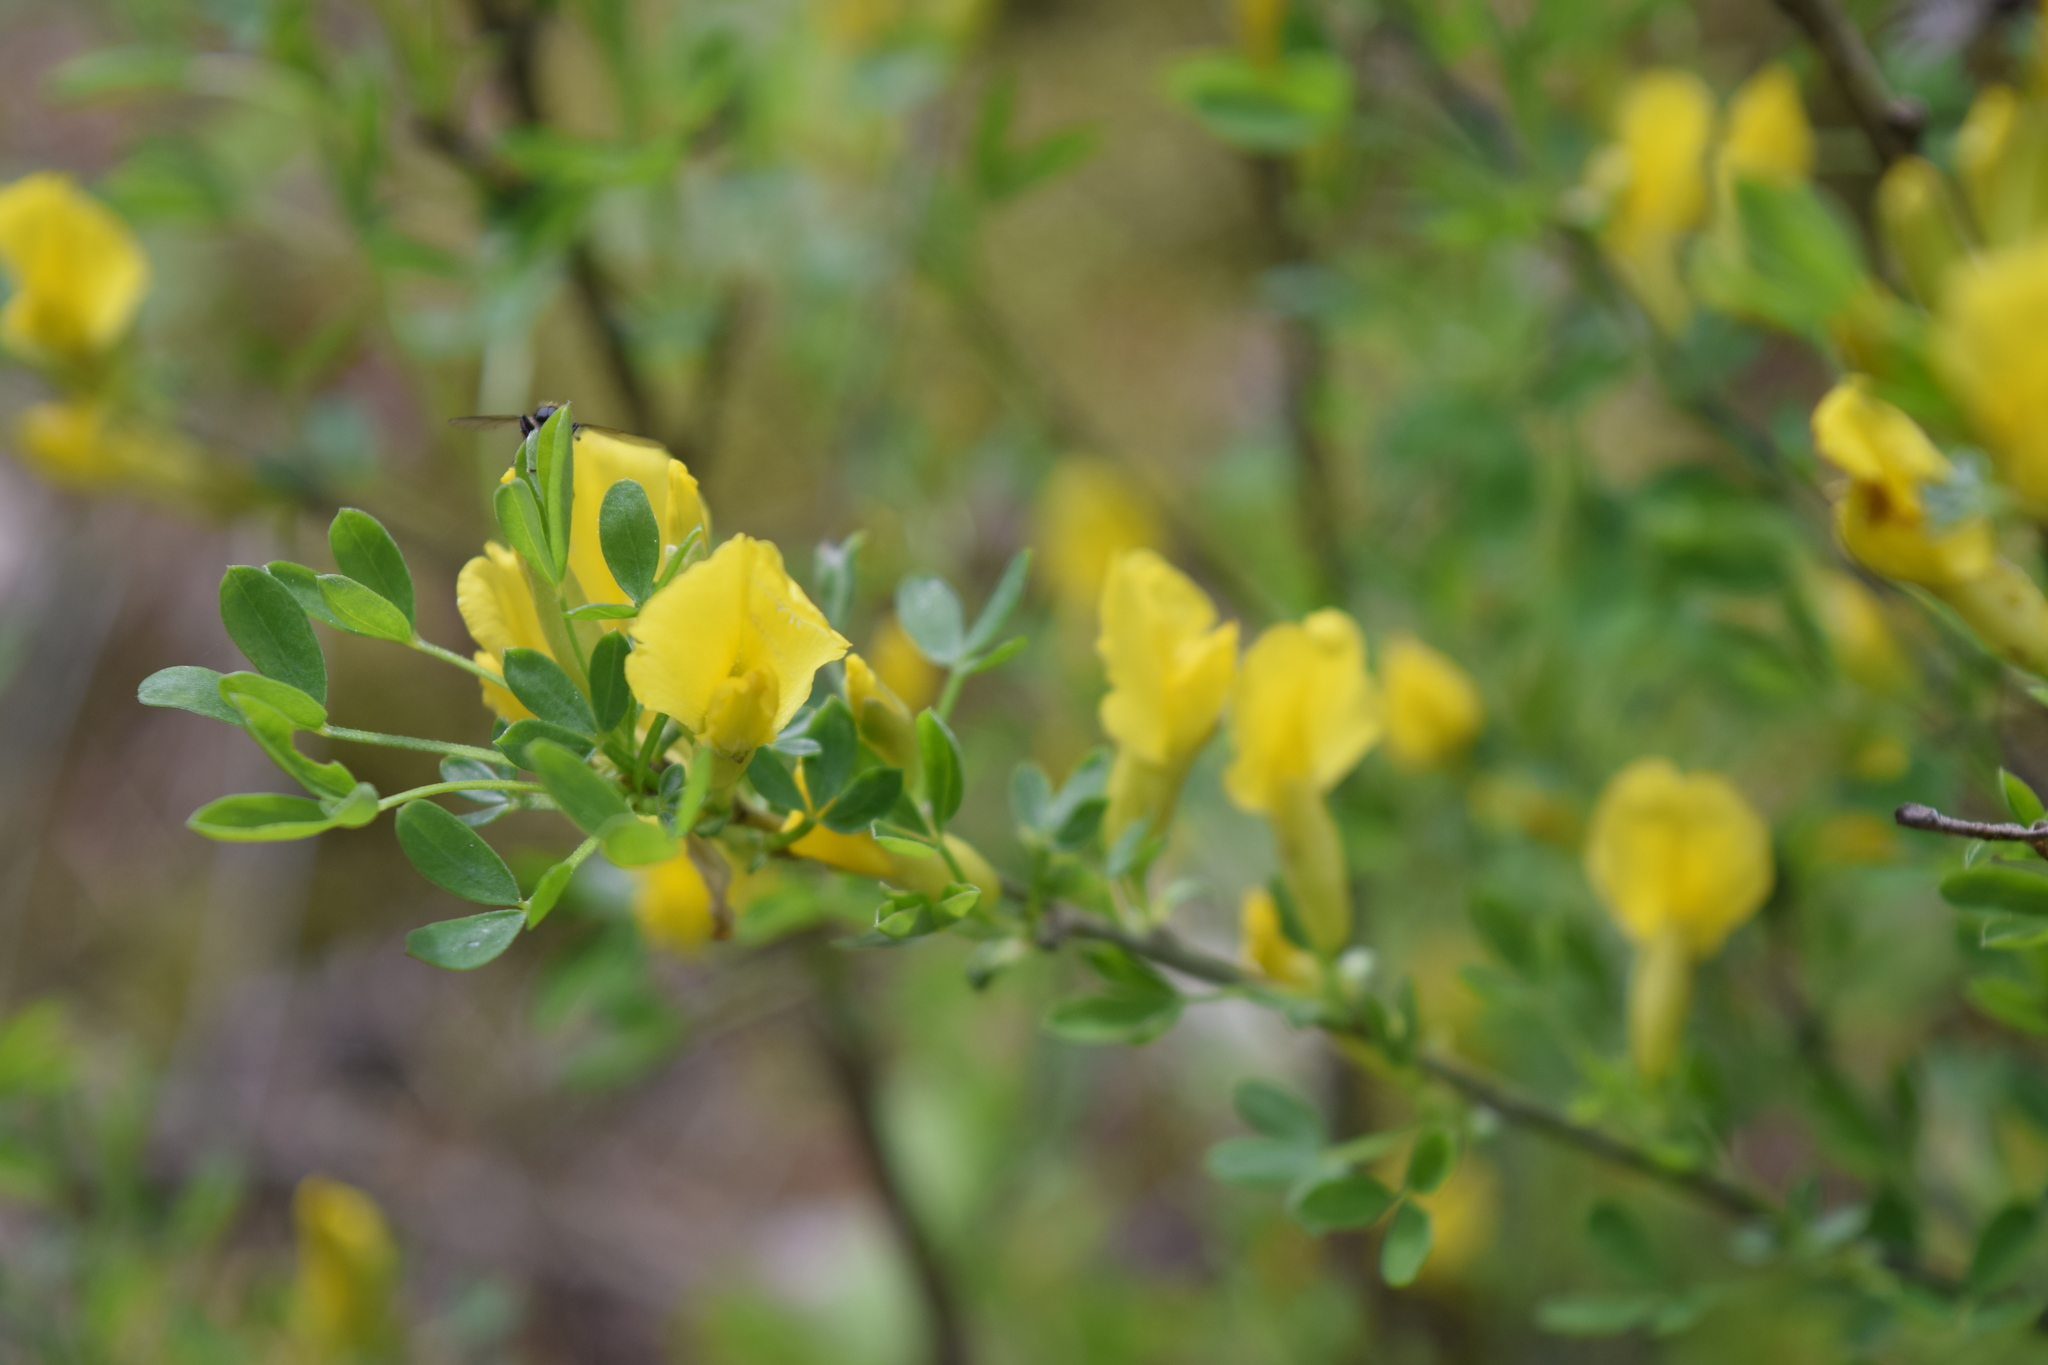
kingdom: Plantae
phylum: Tracheophyta
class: Magnoliopsida
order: Fabales
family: Fabaceae
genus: Chamaecytisus
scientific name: Chamaecytisus ruthenicus
